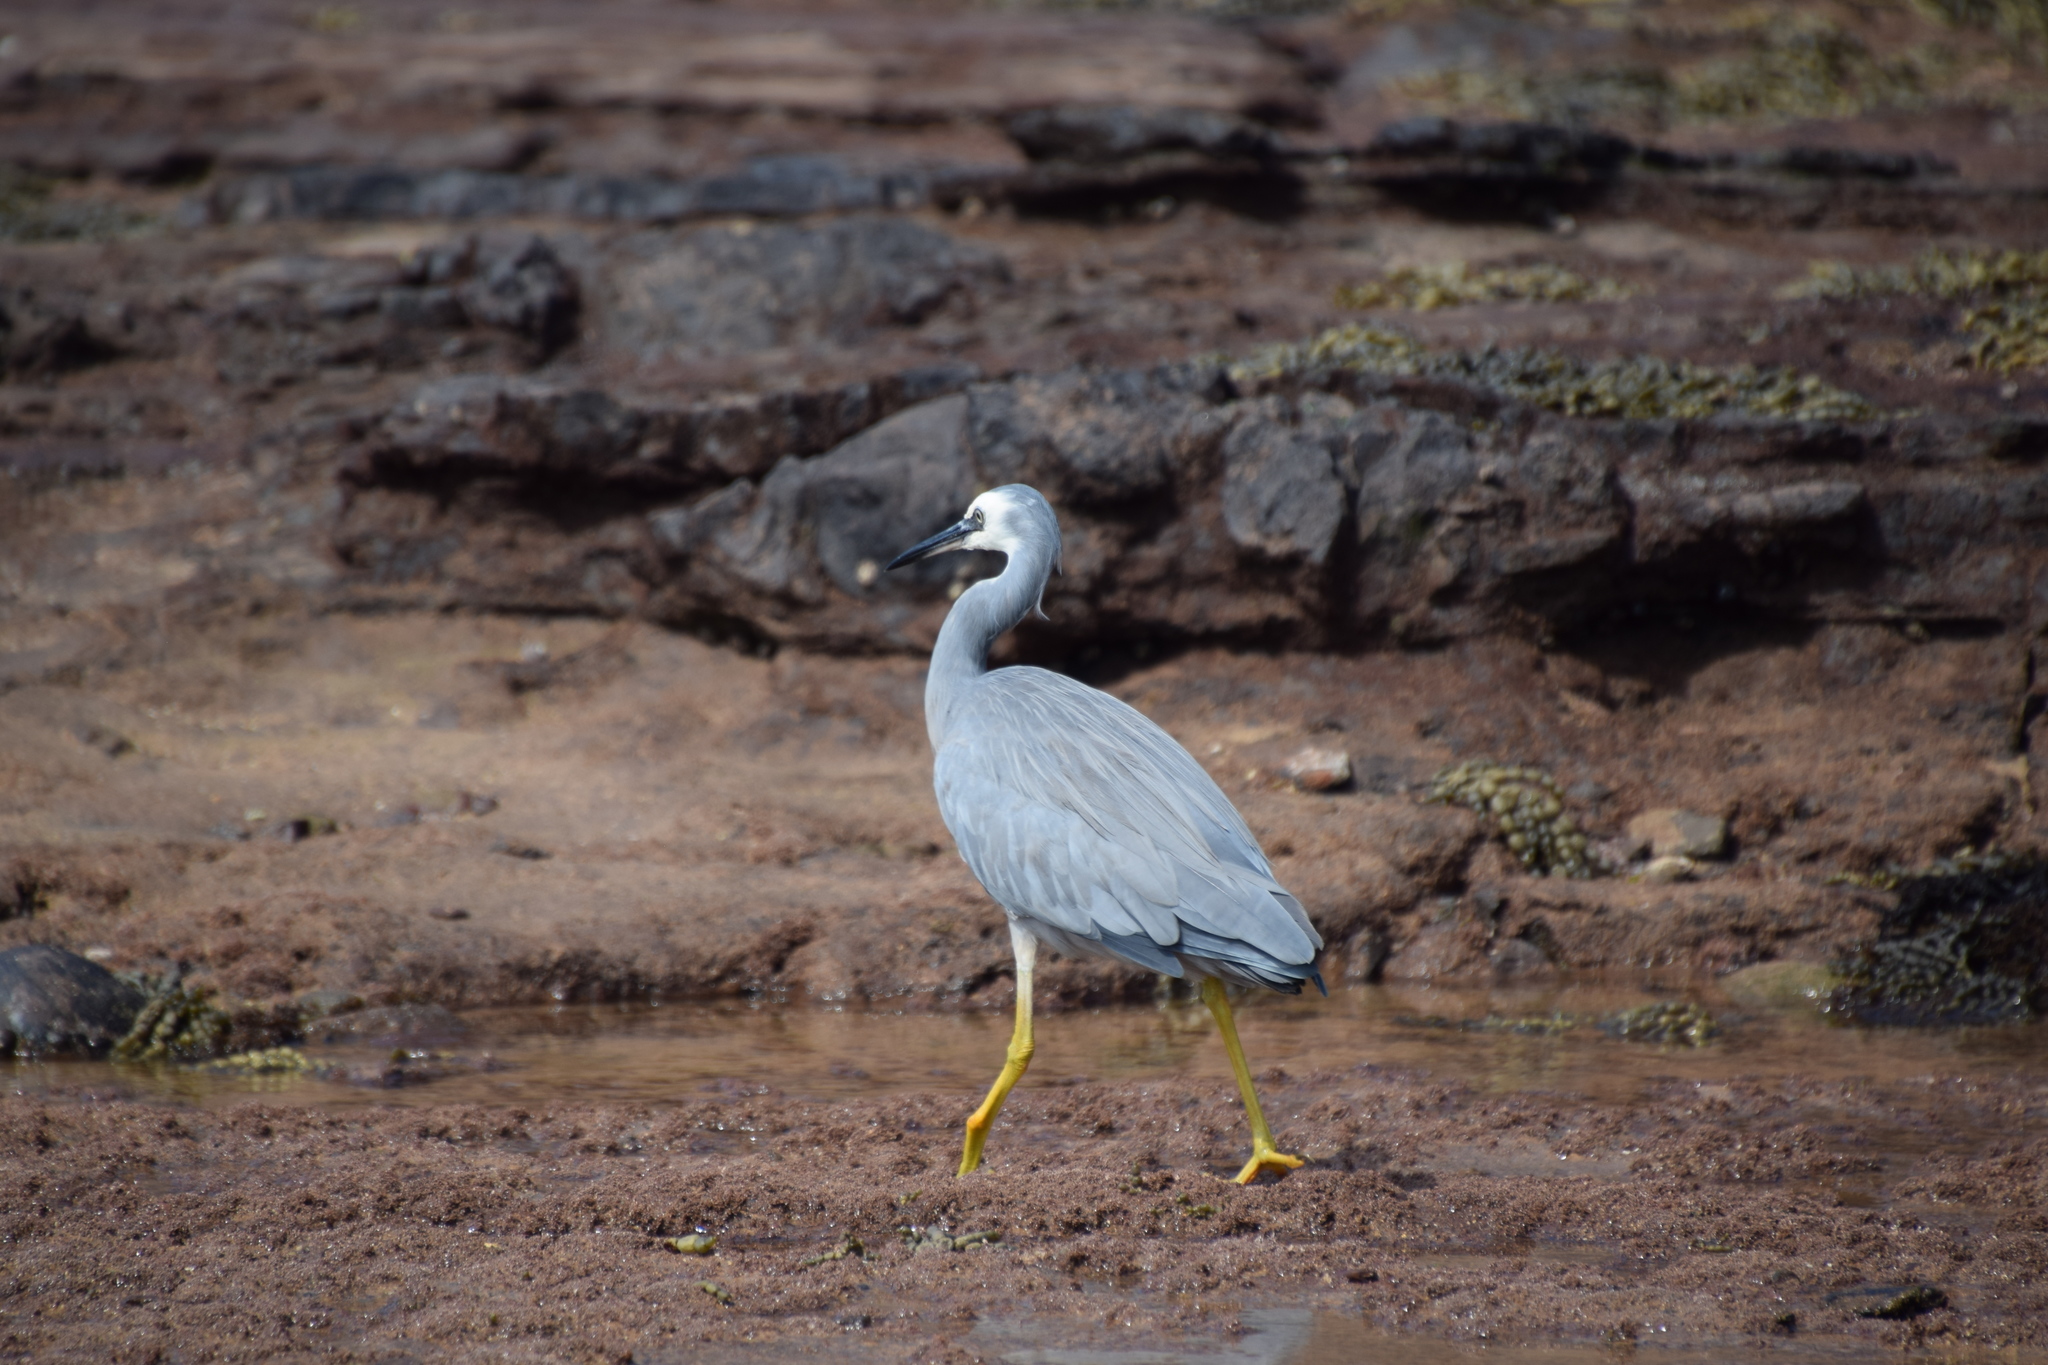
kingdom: Animalia
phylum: Chordata
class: Aves
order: Pelecaniformes
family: Ardeidae
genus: Egretta
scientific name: Egretta novaehollandiae
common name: White-faced heron
